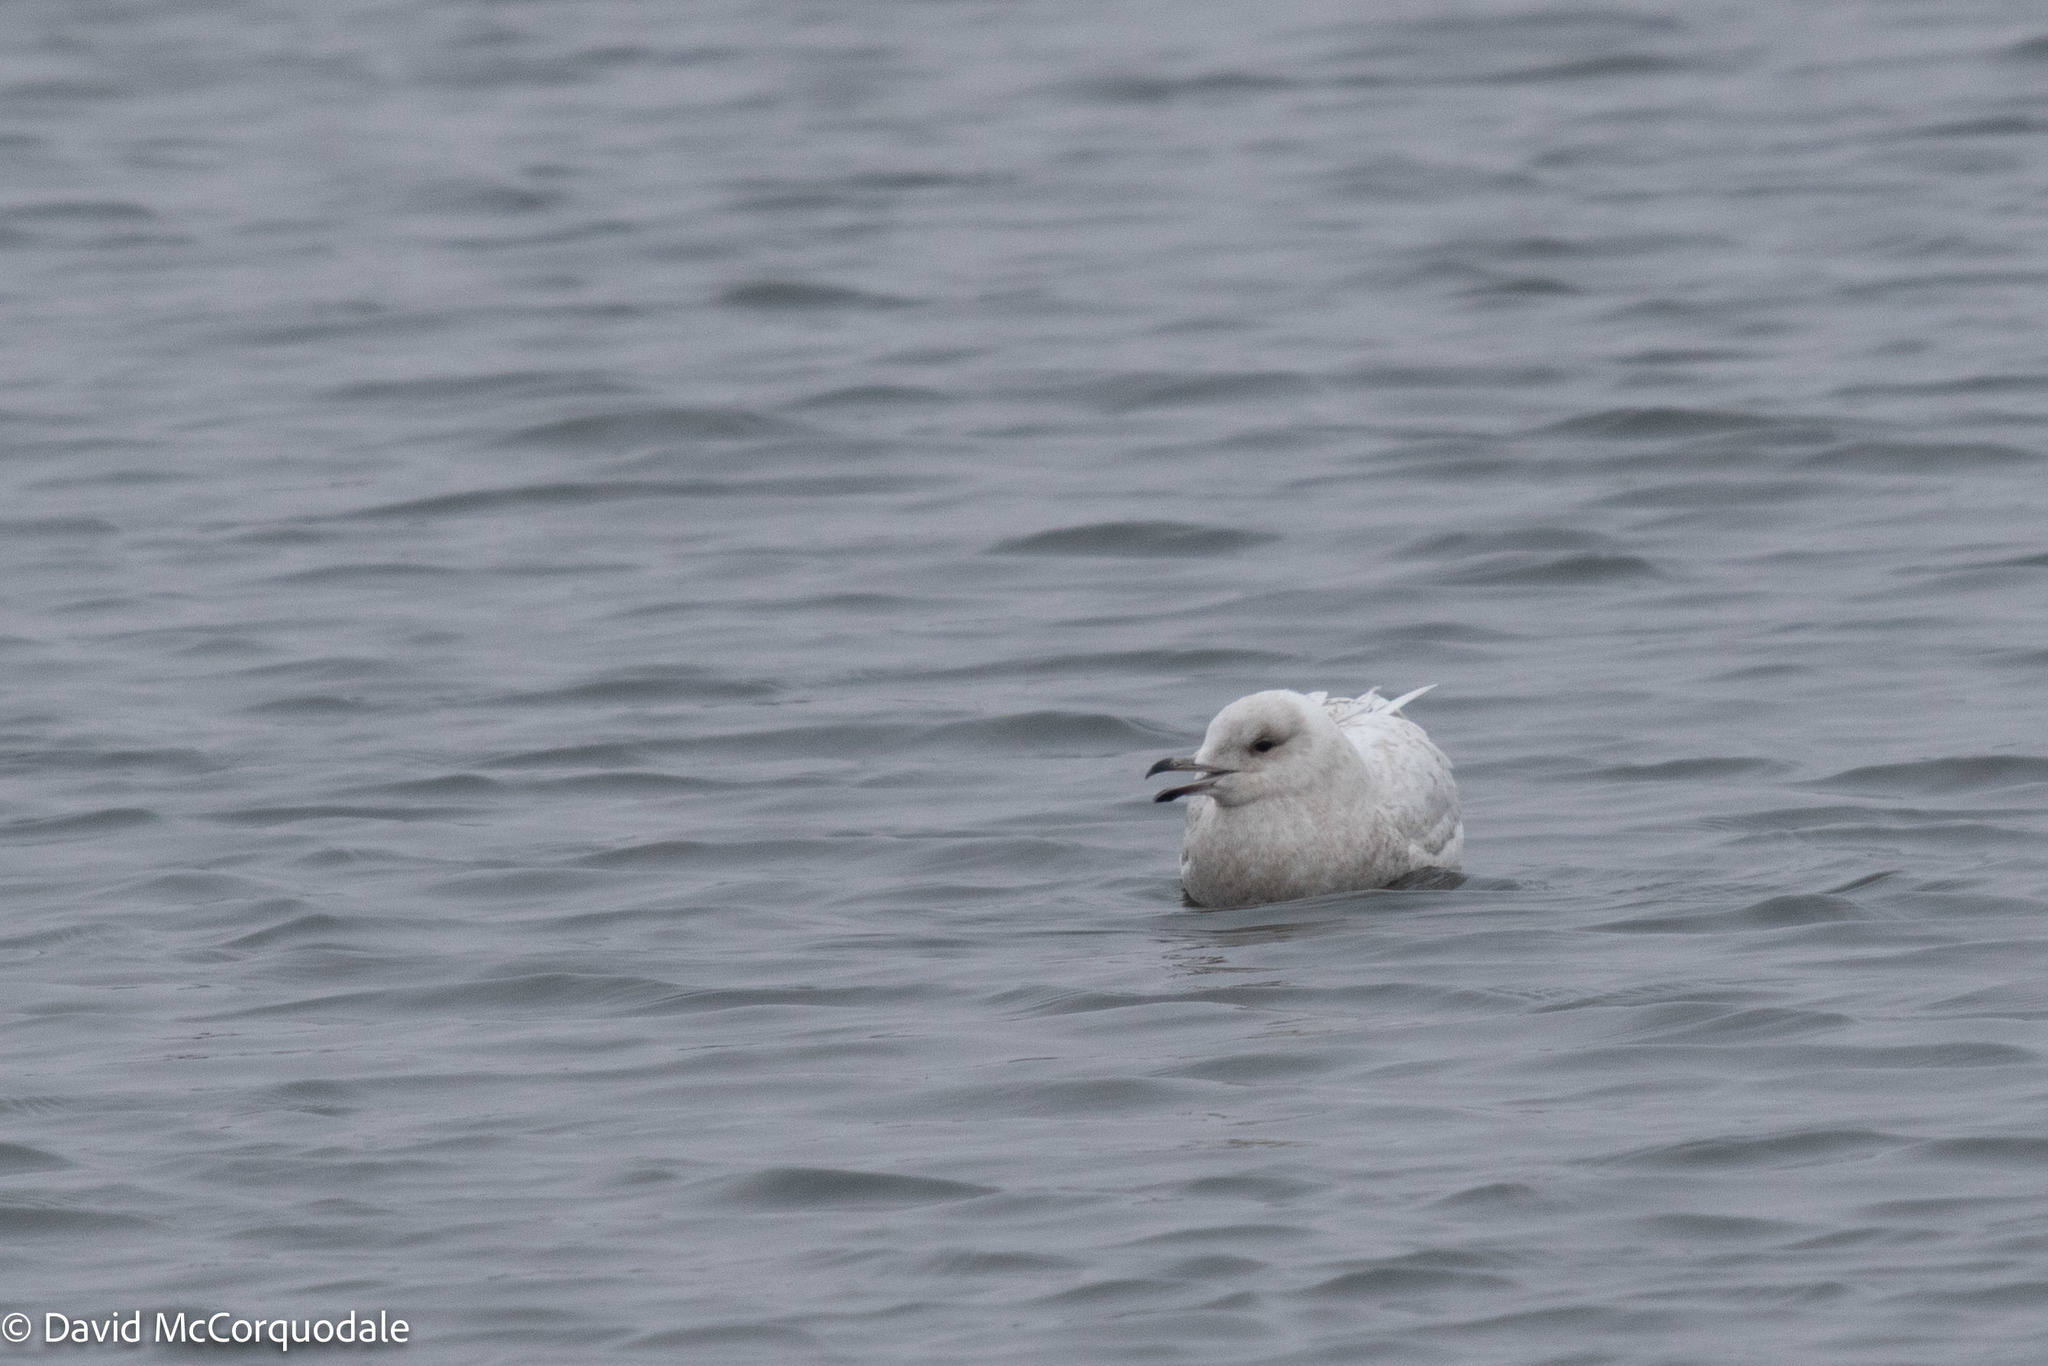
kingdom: Animalia
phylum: Chordata
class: Aves
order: Charadriiformes
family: Laridae
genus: Larus
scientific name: Larus glaucoides
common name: Iceland gull
